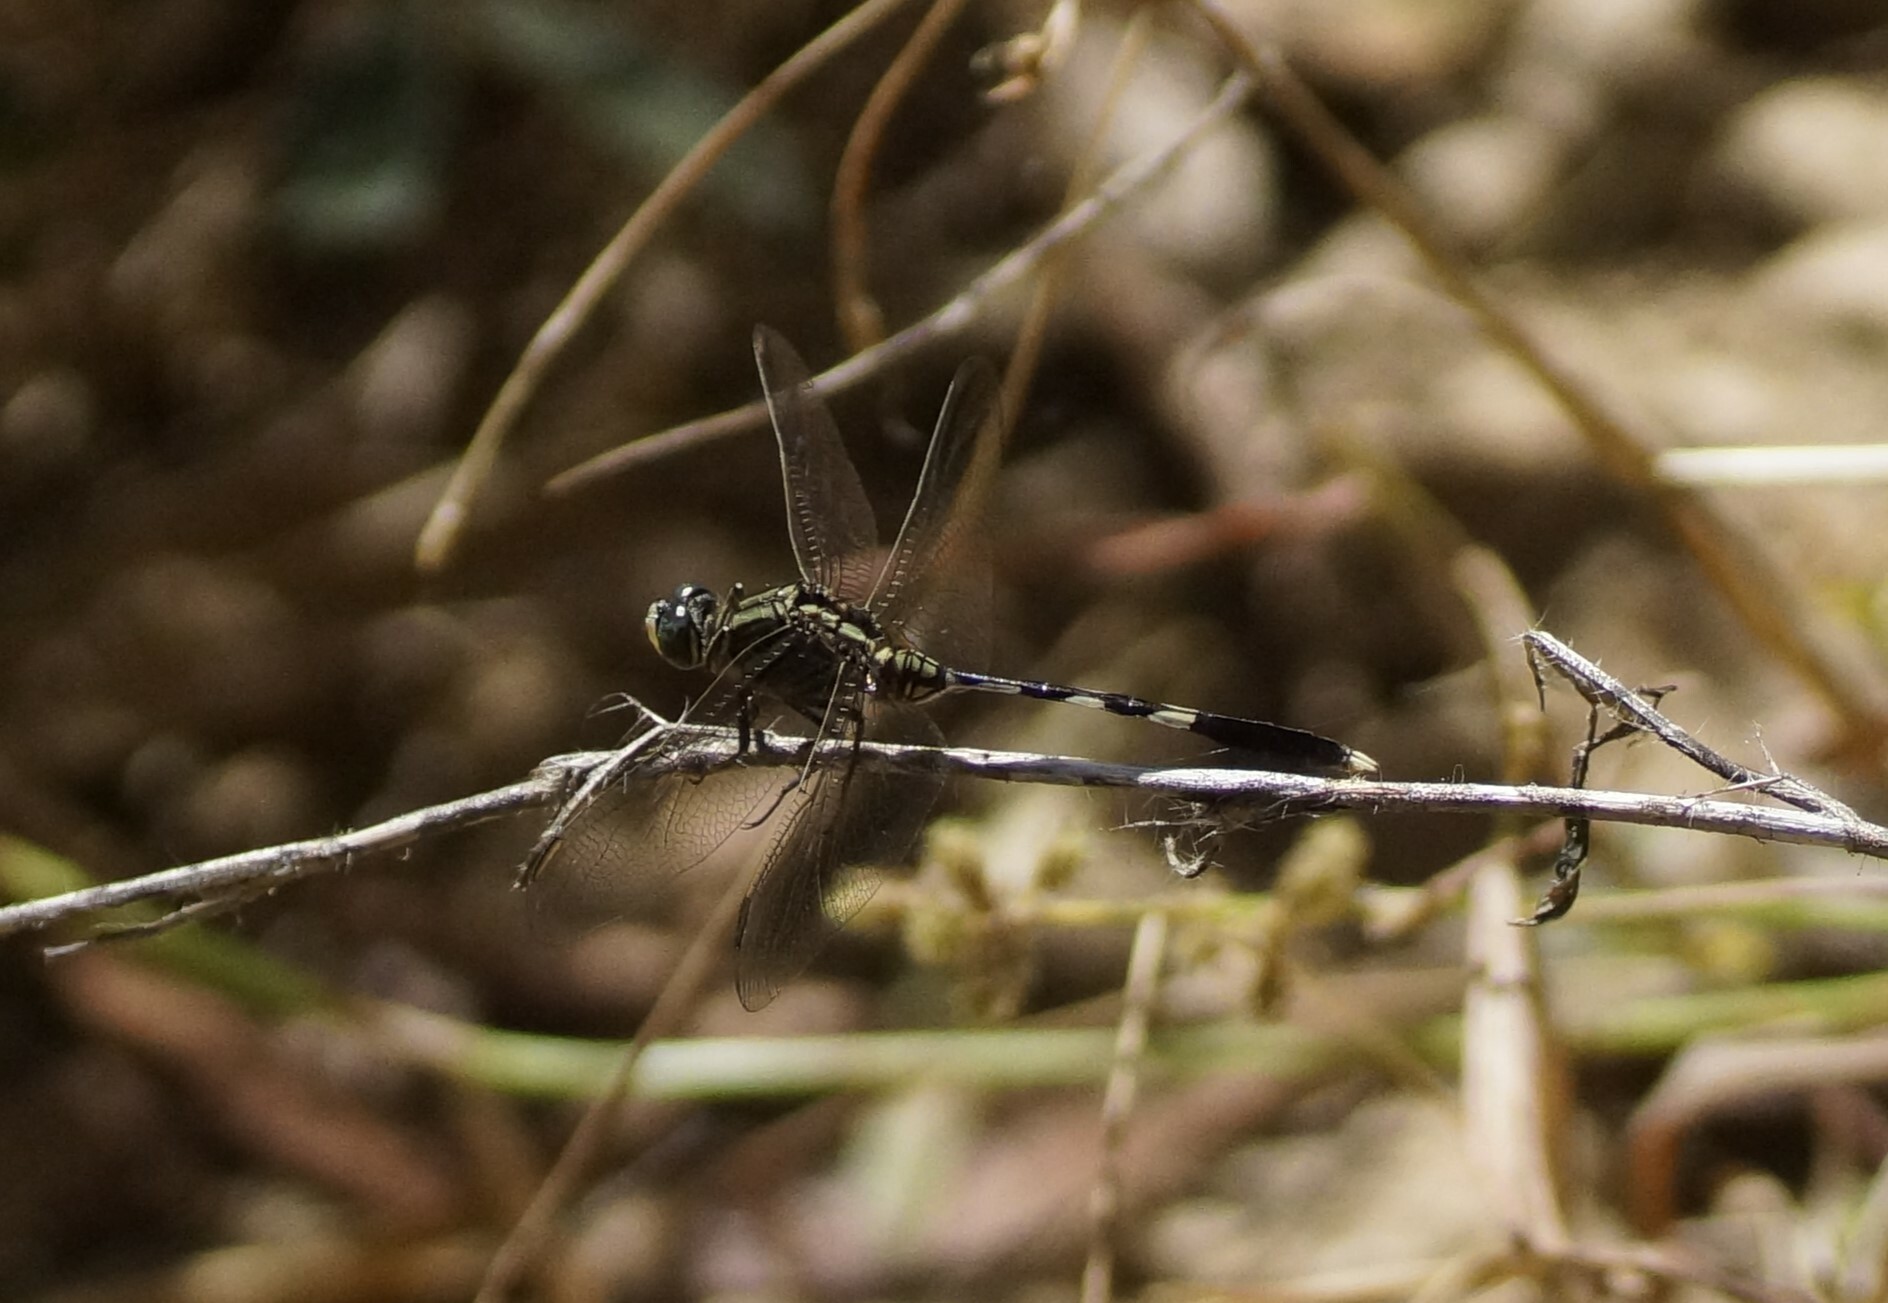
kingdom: Animalia
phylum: Arthropoda
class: Insecta
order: Odonata
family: Libellulidae
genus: Orthetrum
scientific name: Orthetrum sabina
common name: Slender skimmer
